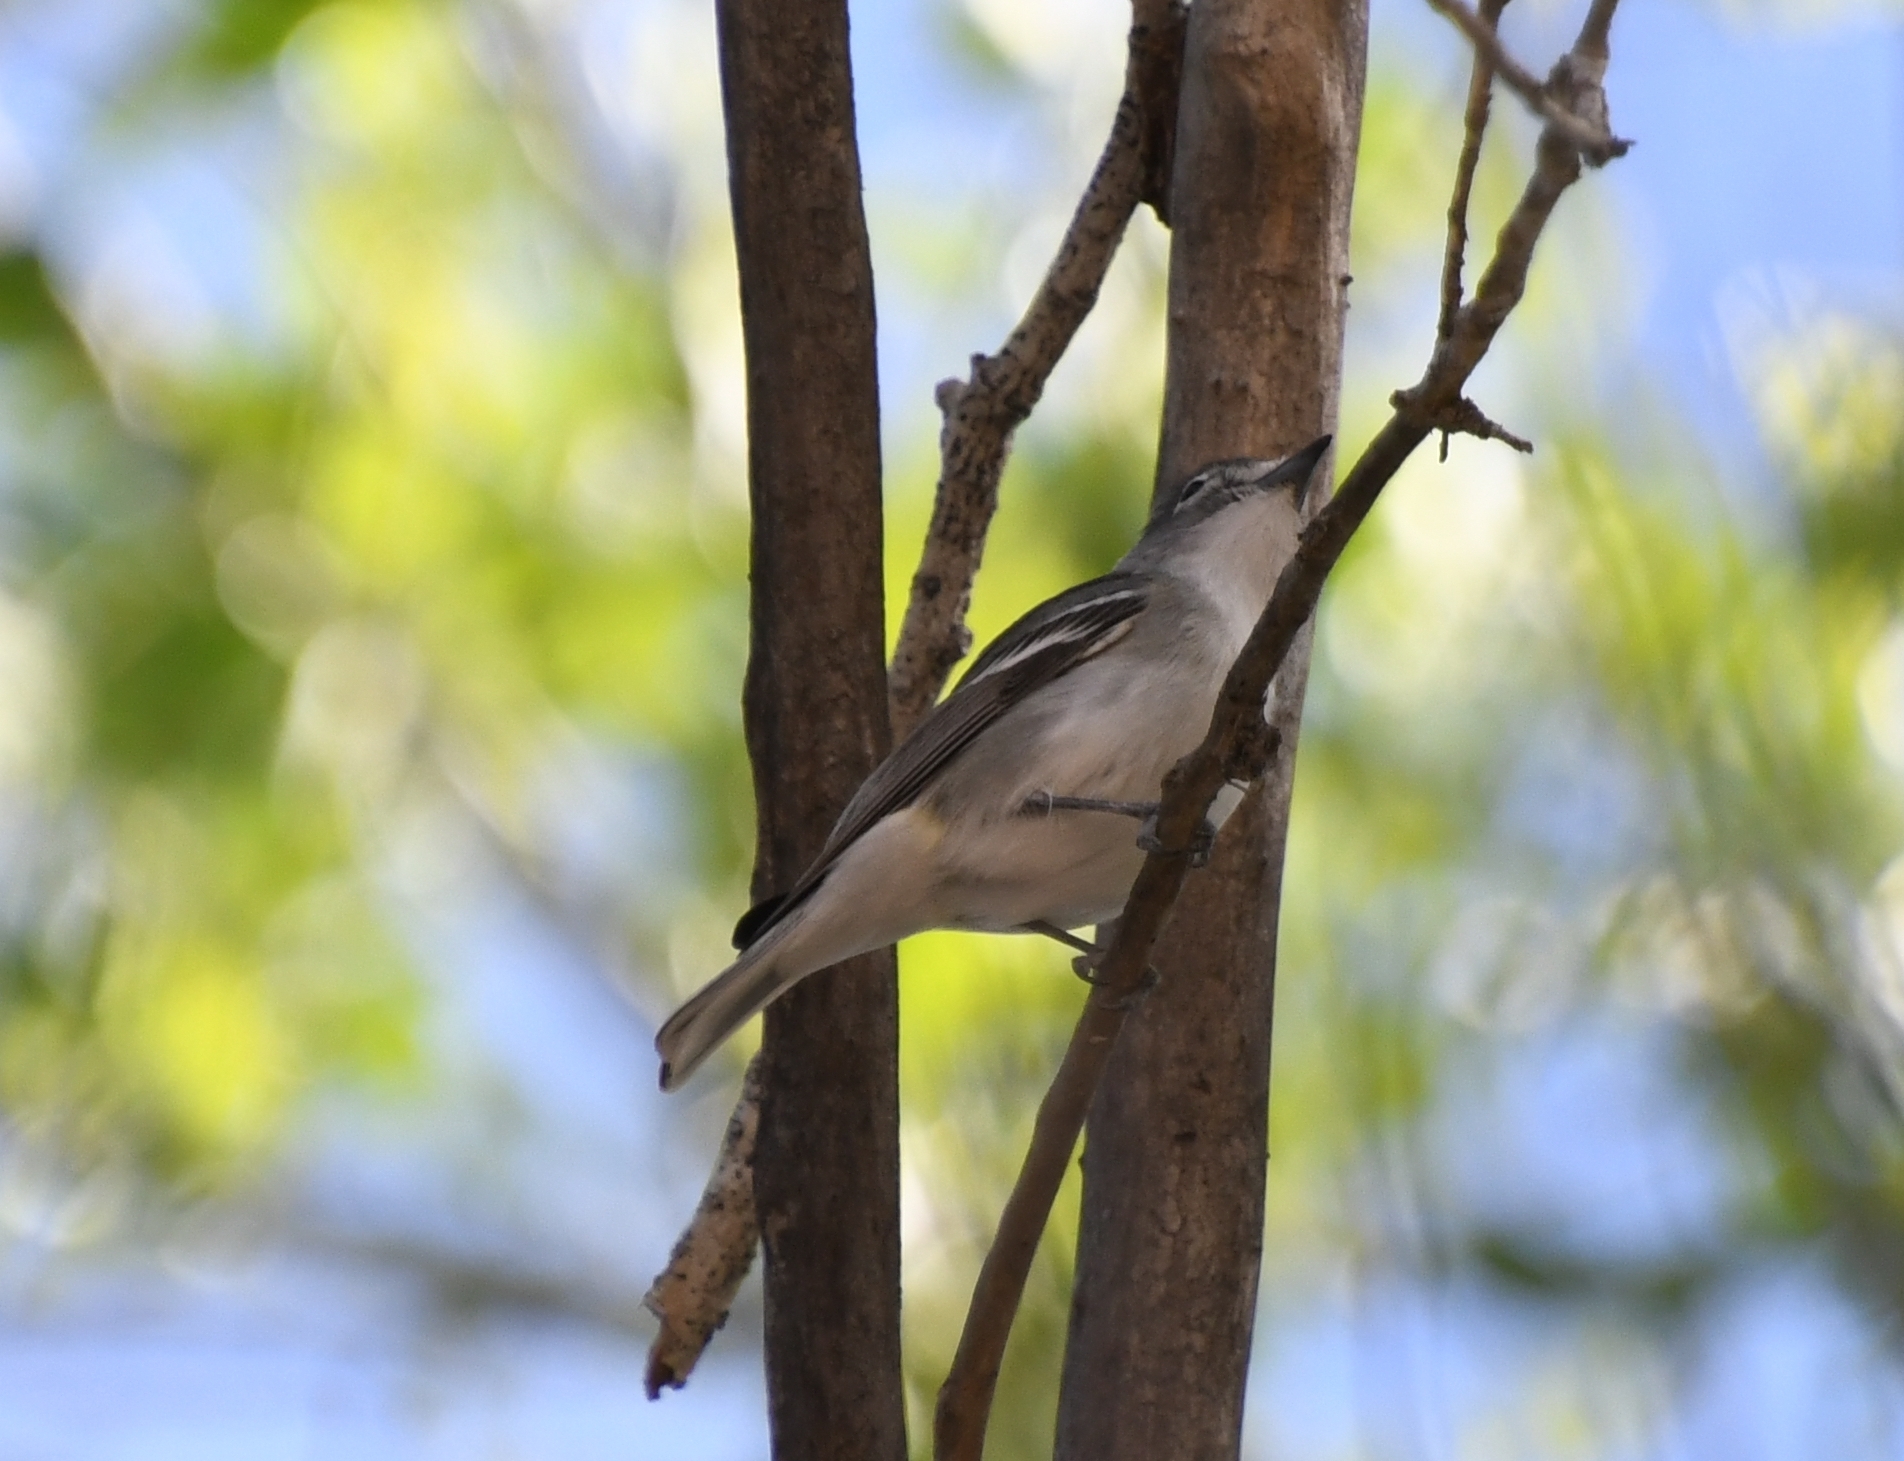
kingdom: Animalia
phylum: Chordata
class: Aves
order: Passeriformes
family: Vireonidae
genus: Vireo
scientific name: Vireo plumbeus
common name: Plumbeous vireo
